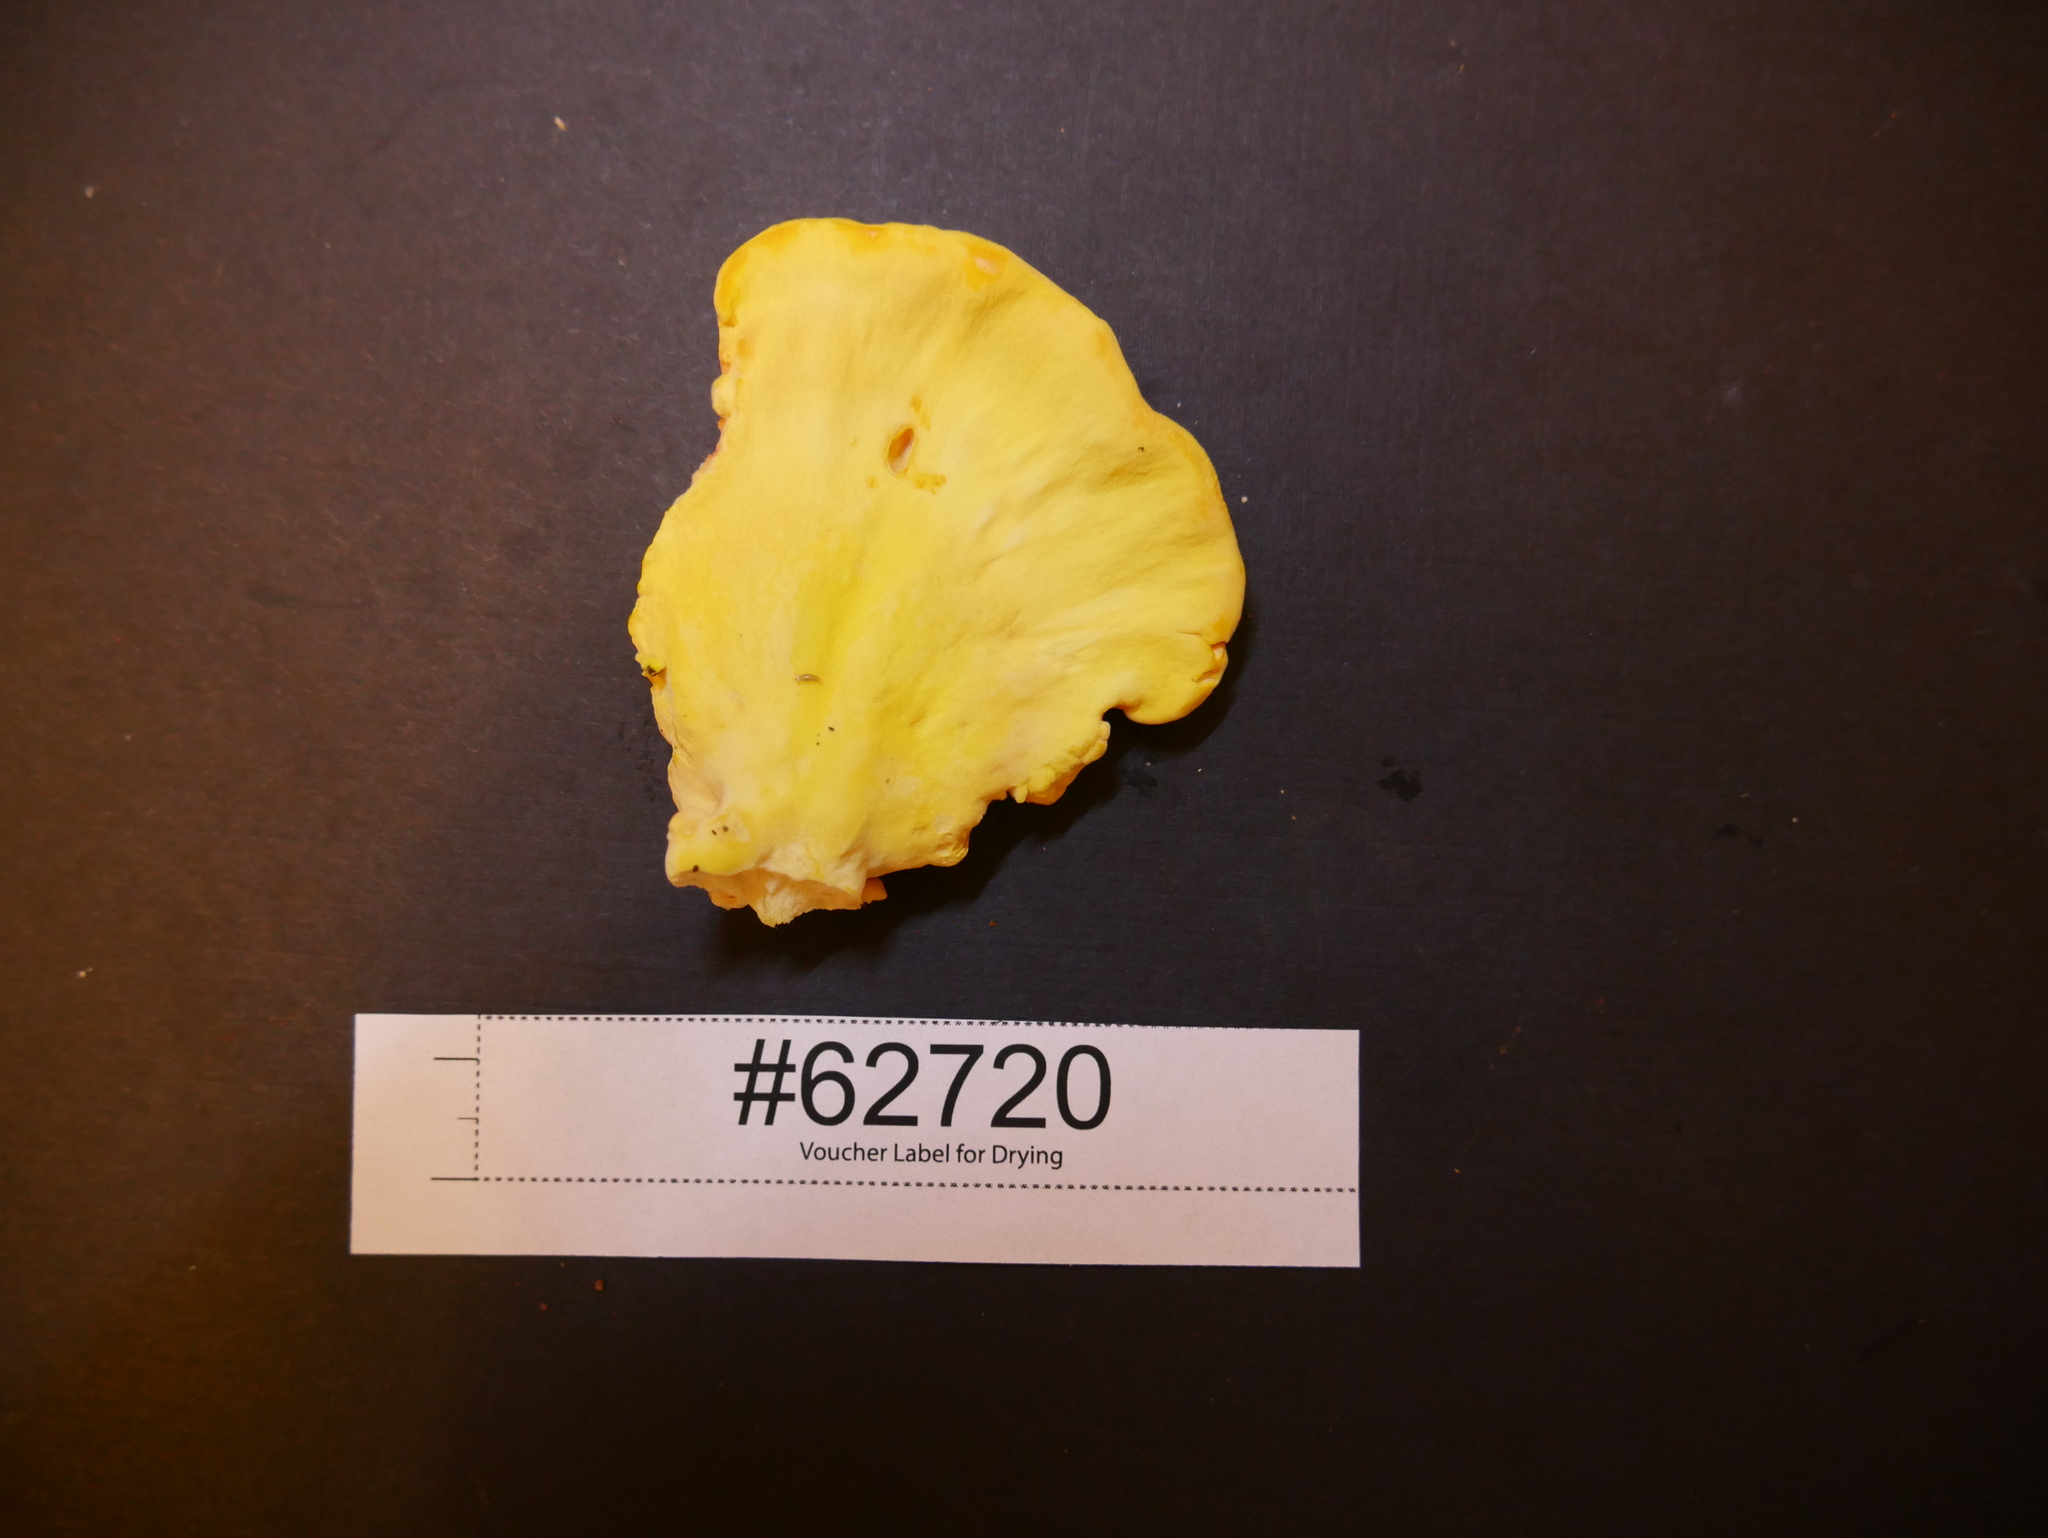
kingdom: Fungi
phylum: Basidiomycota
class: Agaricomycetes
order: Polyporales
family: Laetiporaceae
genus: Laetiporus
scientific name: Laetiporus sulphureus
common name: Chicken of the woods
